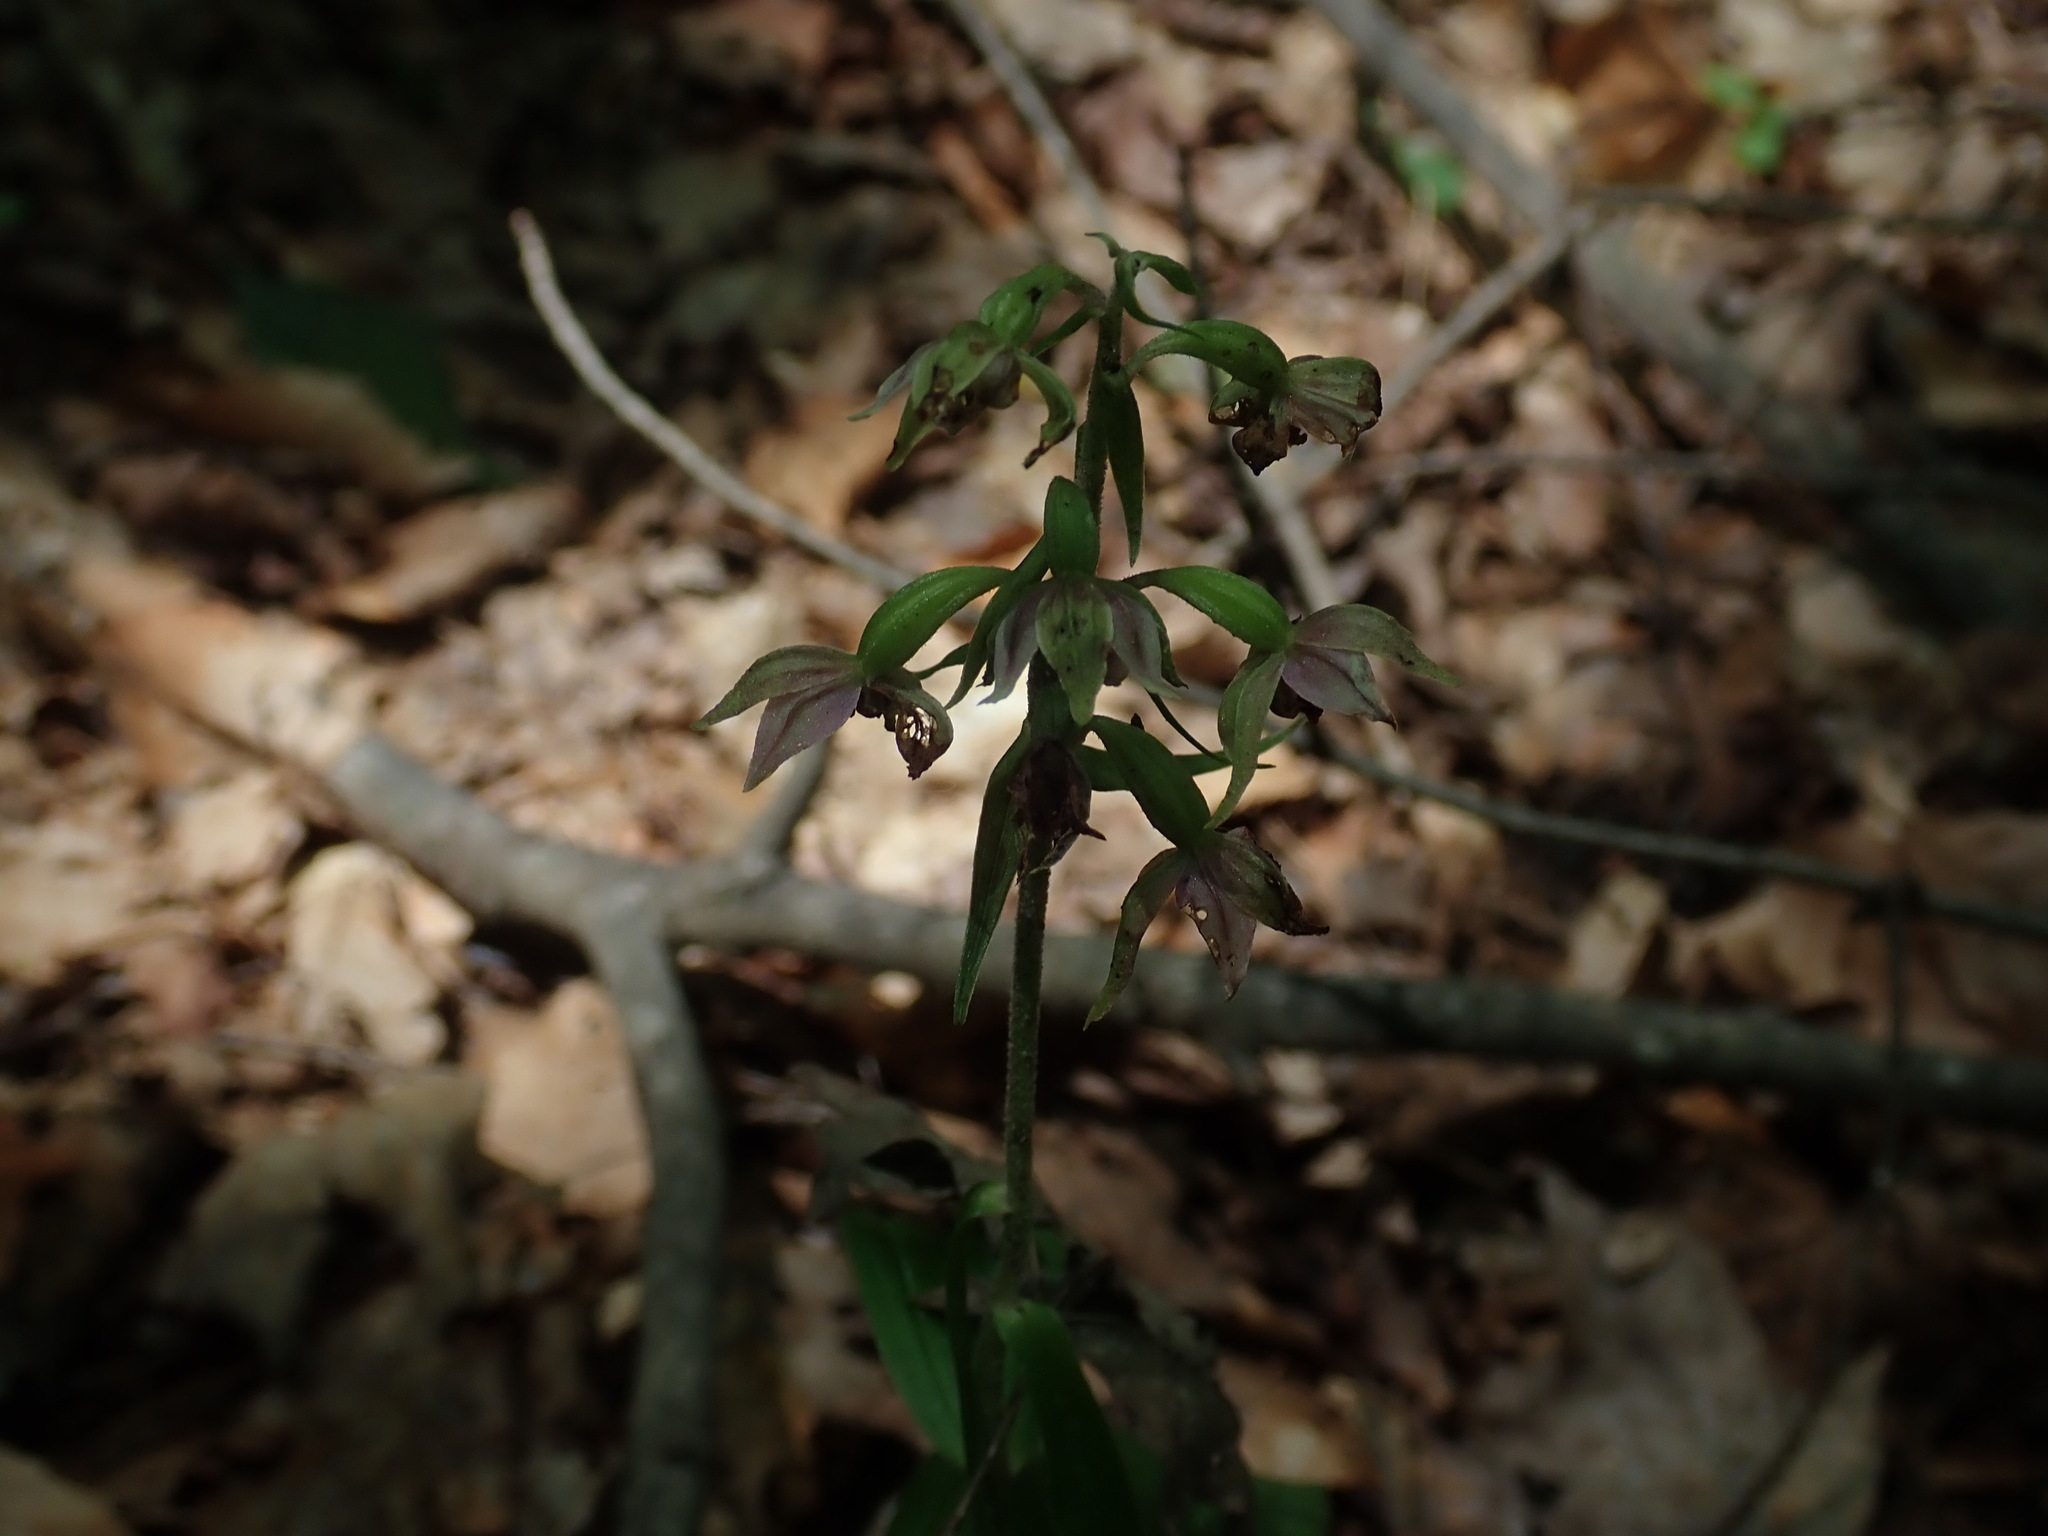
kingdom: Plantae
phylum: Tracheophyta
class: Liliopsida
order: Asparagales
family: Orchidaceae
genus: Epipactis
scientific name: Epipactis helleborine
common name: Broad-leaved helleborine
